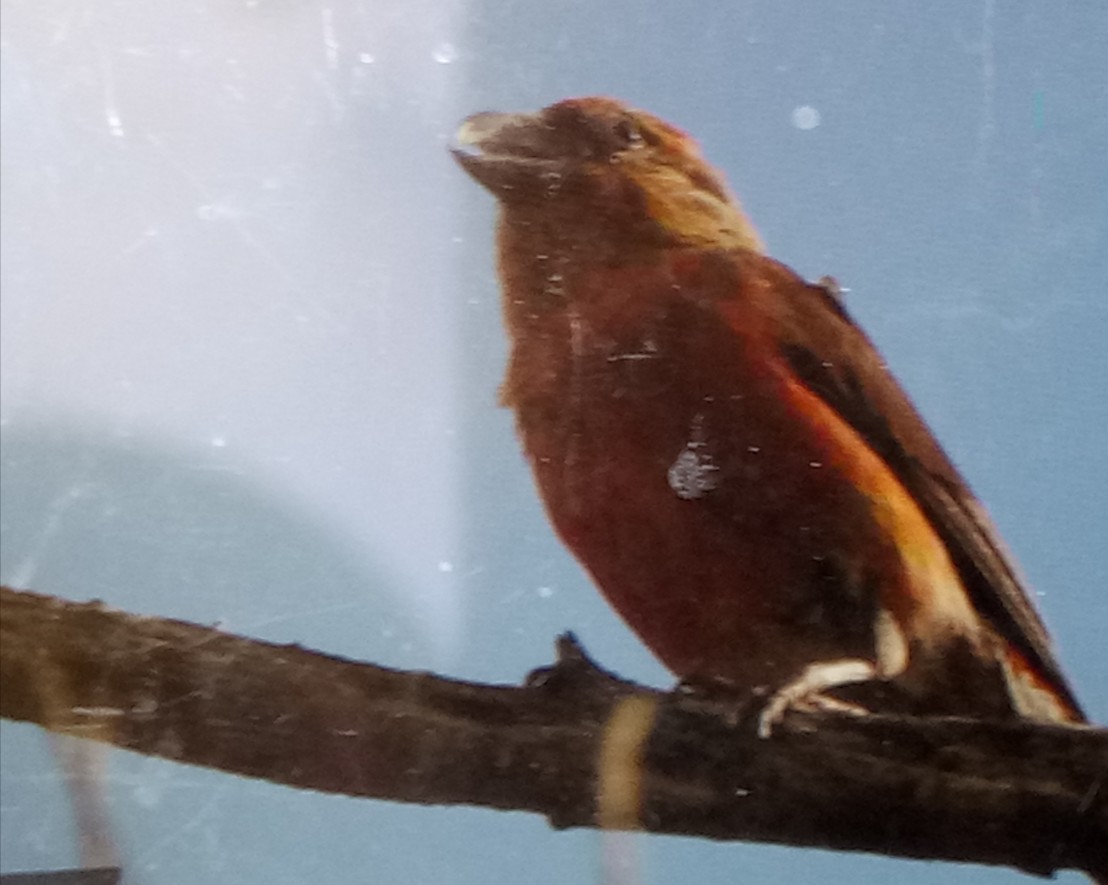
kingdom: Animalia
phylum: Chordata
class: Aves
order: Passeriformes
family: Fringillidae
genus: Loxia
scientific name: Loxia curvirostra
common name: Red crossbill
